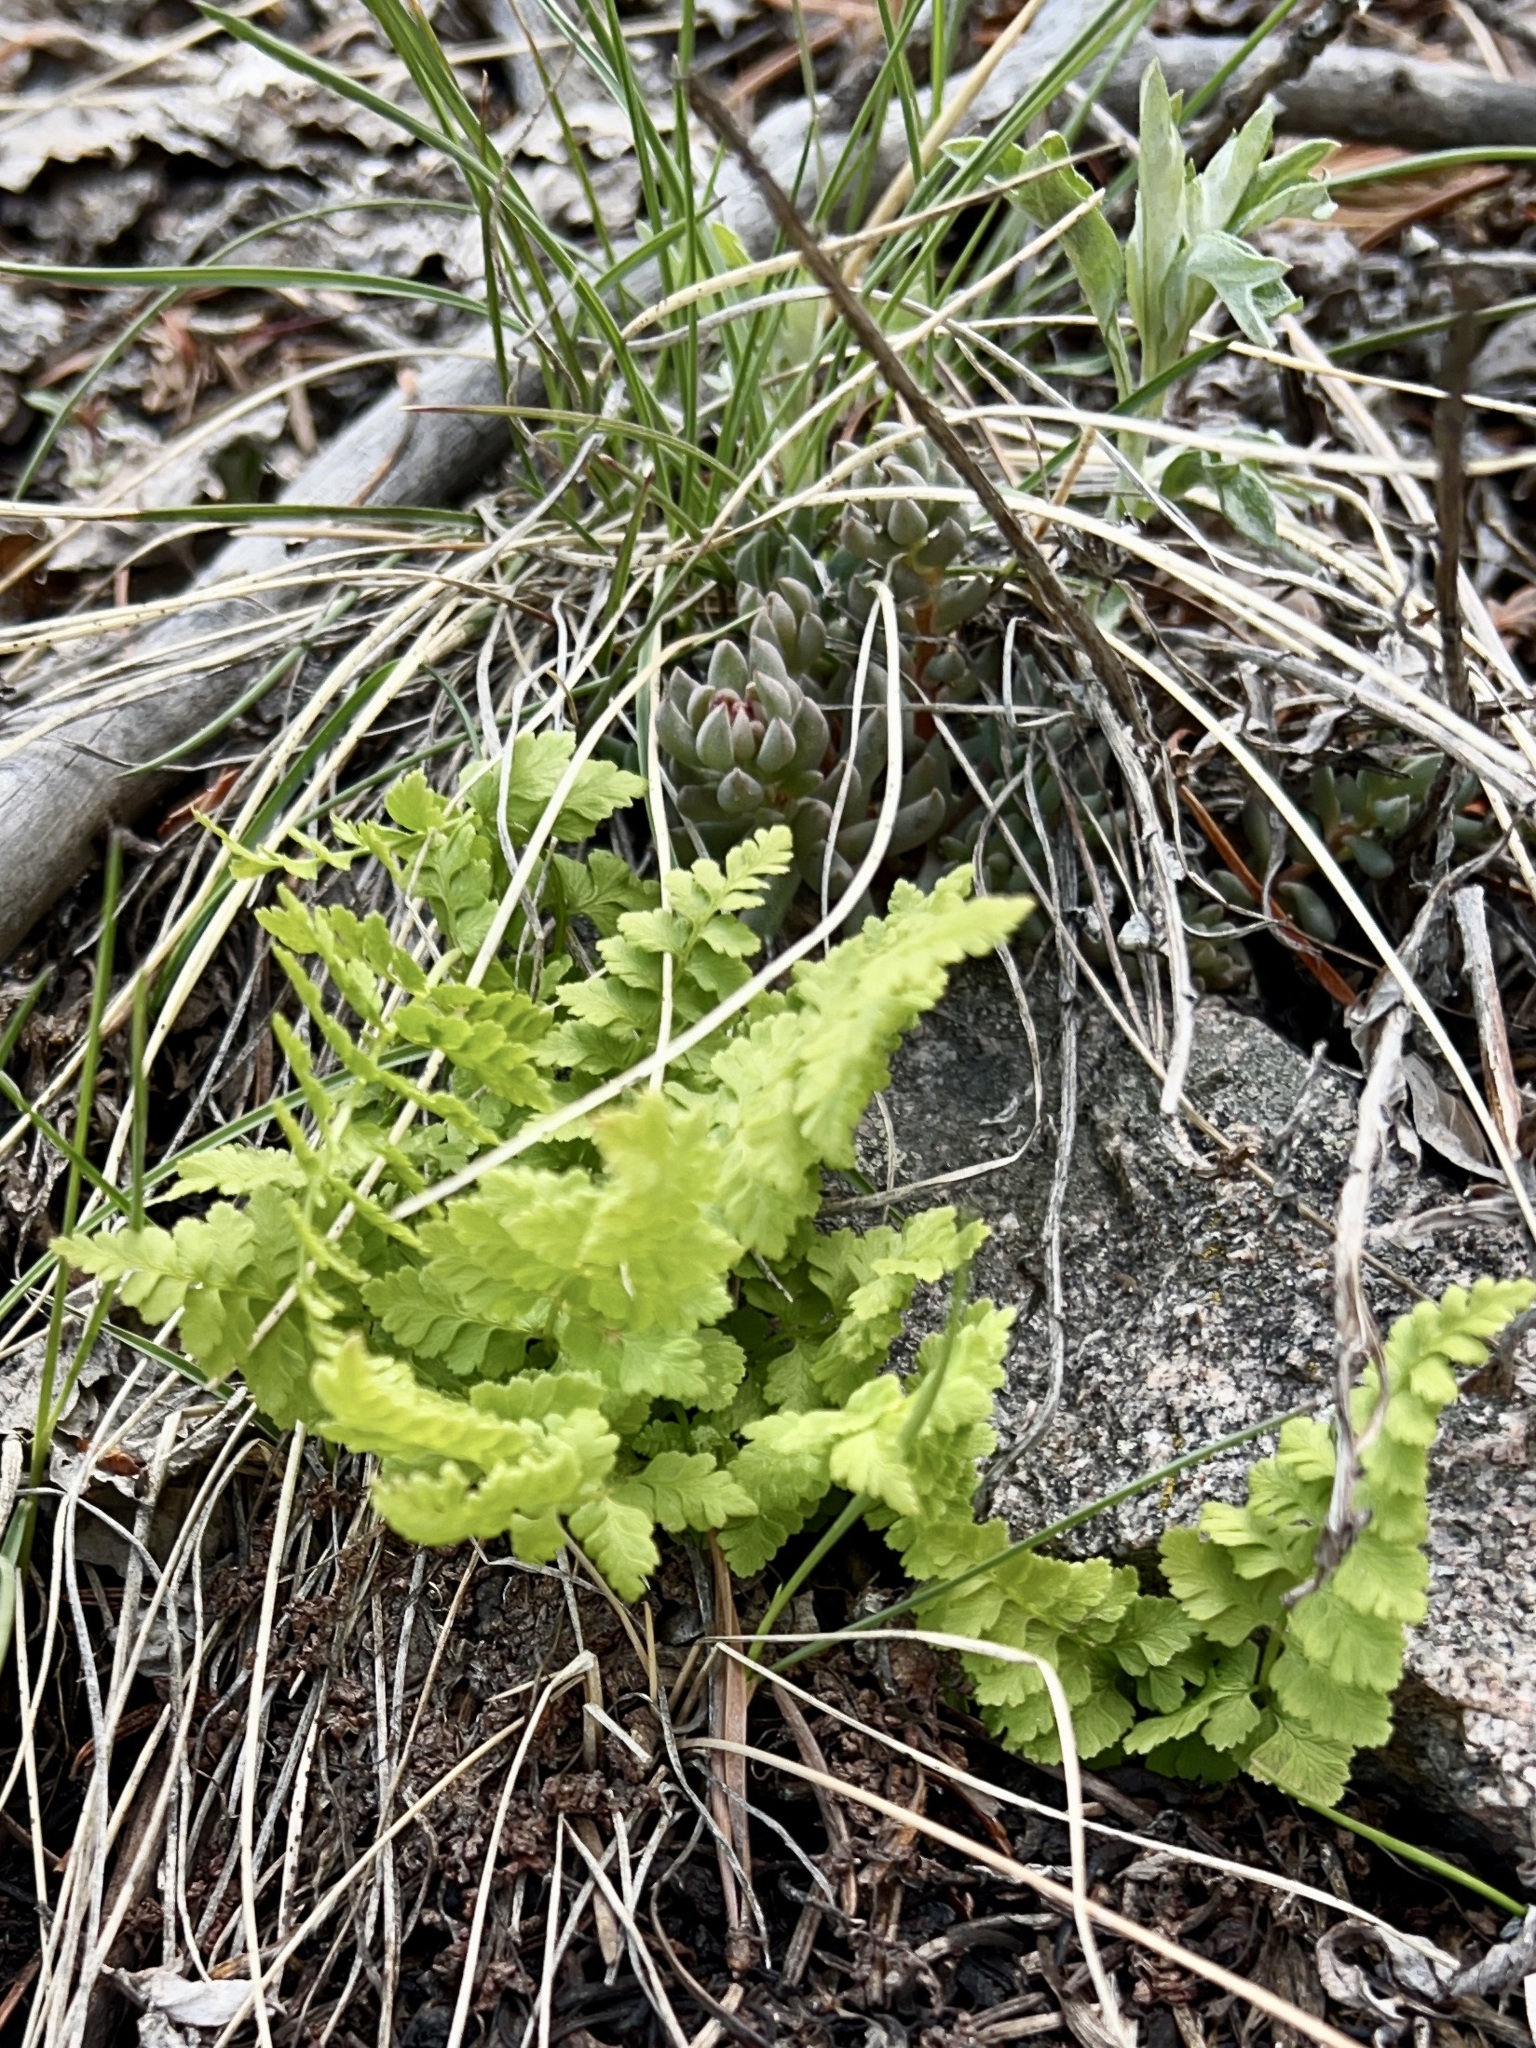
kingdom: Plantae
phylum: Tracheophyta
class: Polypodiopsida
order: Polypodiales
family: Cystopteridaceae
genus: Cystopteris
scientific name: Cystopteris fragilis
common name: Brittle bladder fern
